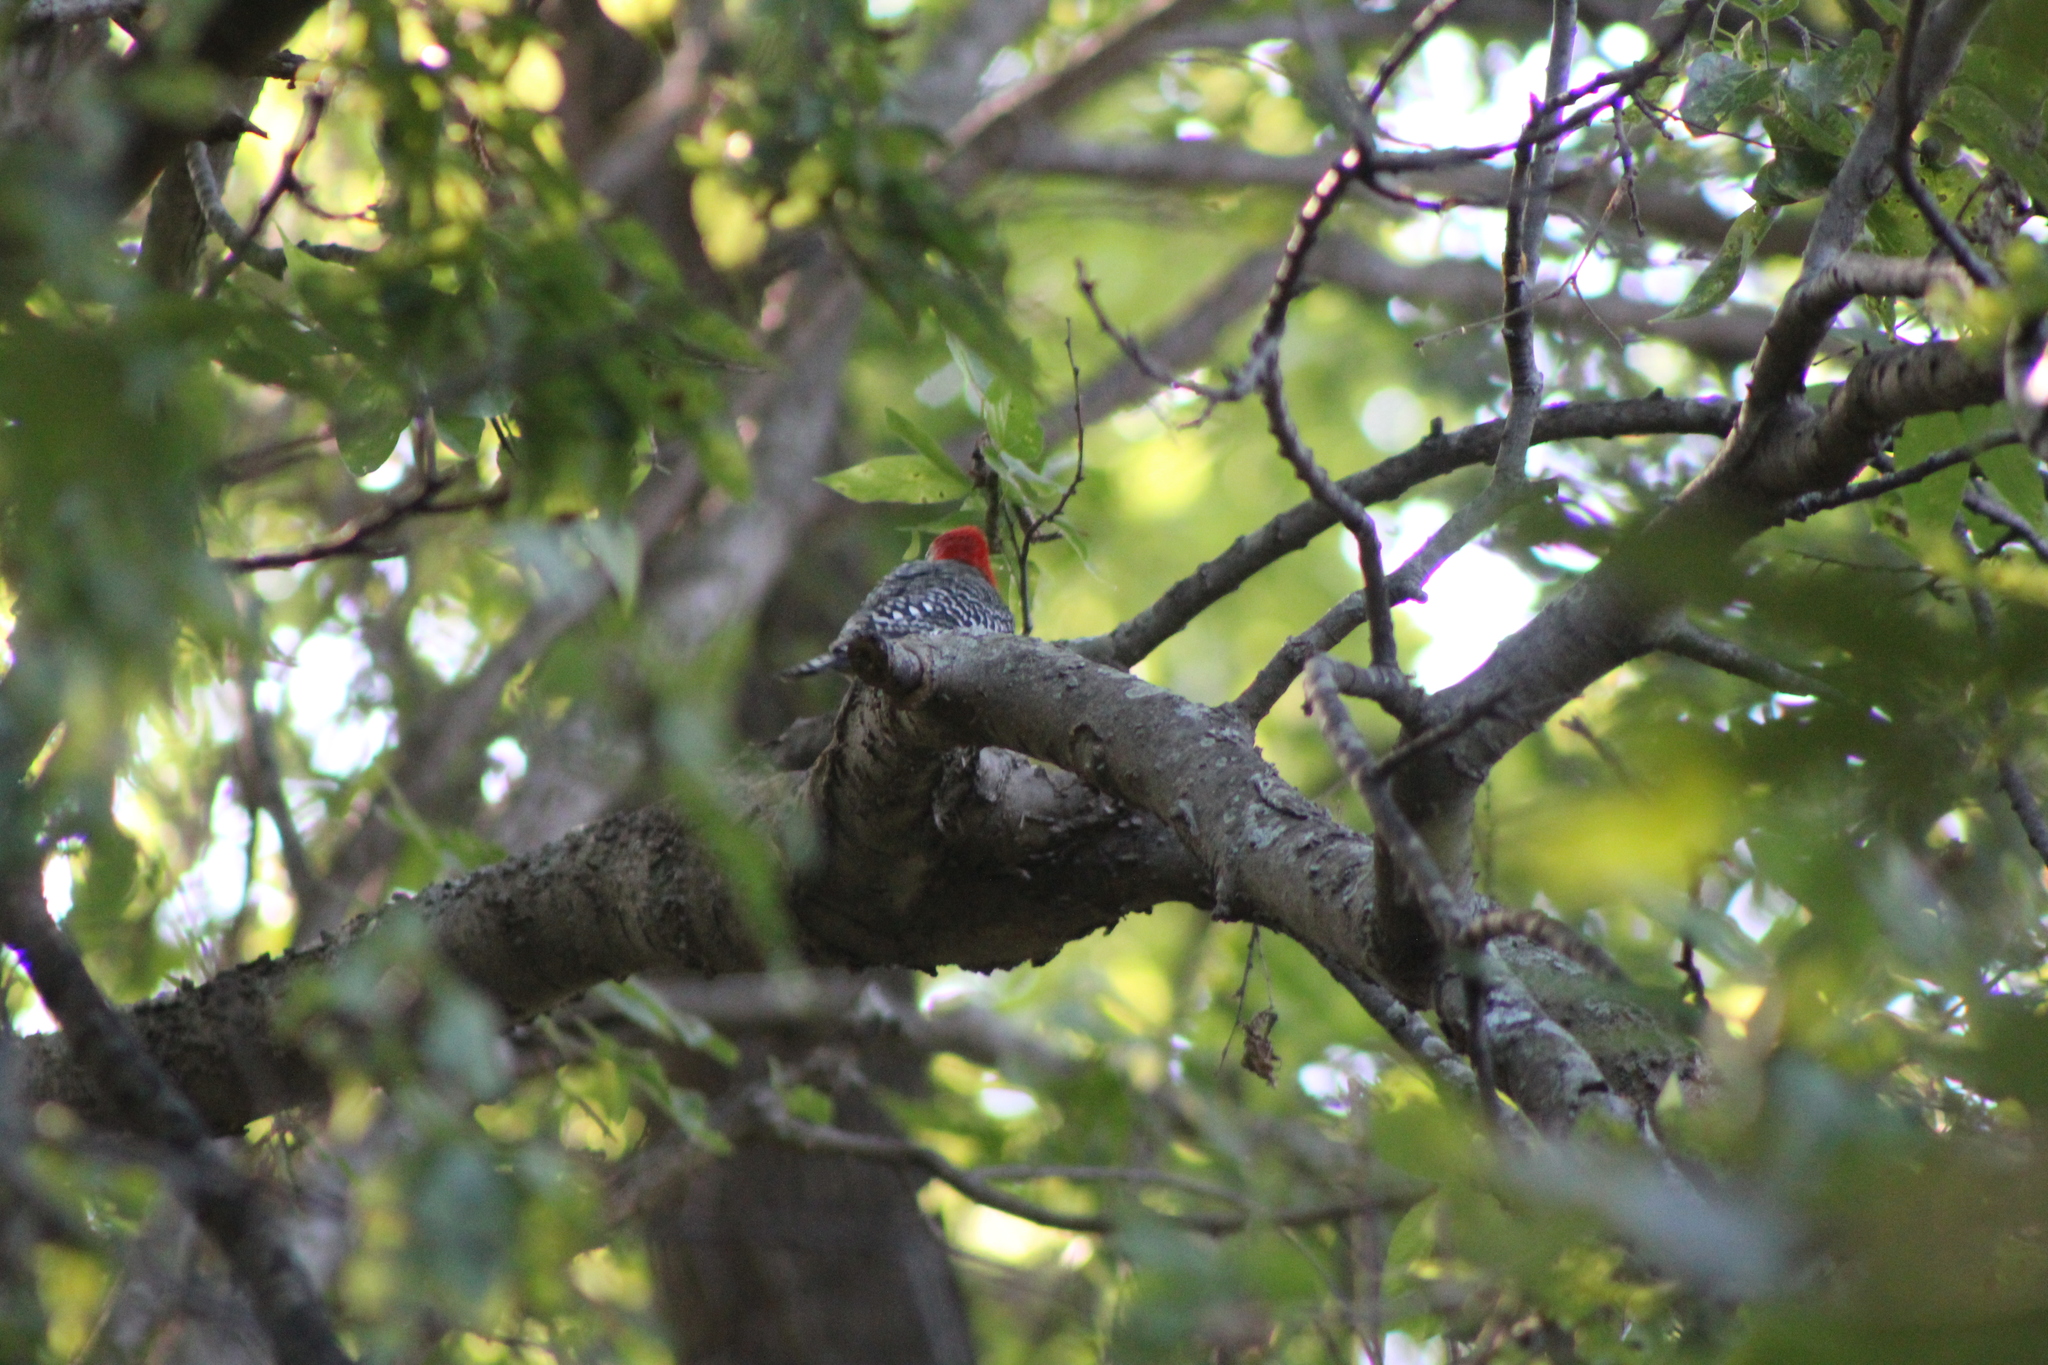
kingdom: Animalia
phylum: Chordata
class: Aves
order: Piciformes
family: Picidae
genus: Melanerpes
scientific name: Melanerpes carolinus
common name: Red-bellied woodpecker
